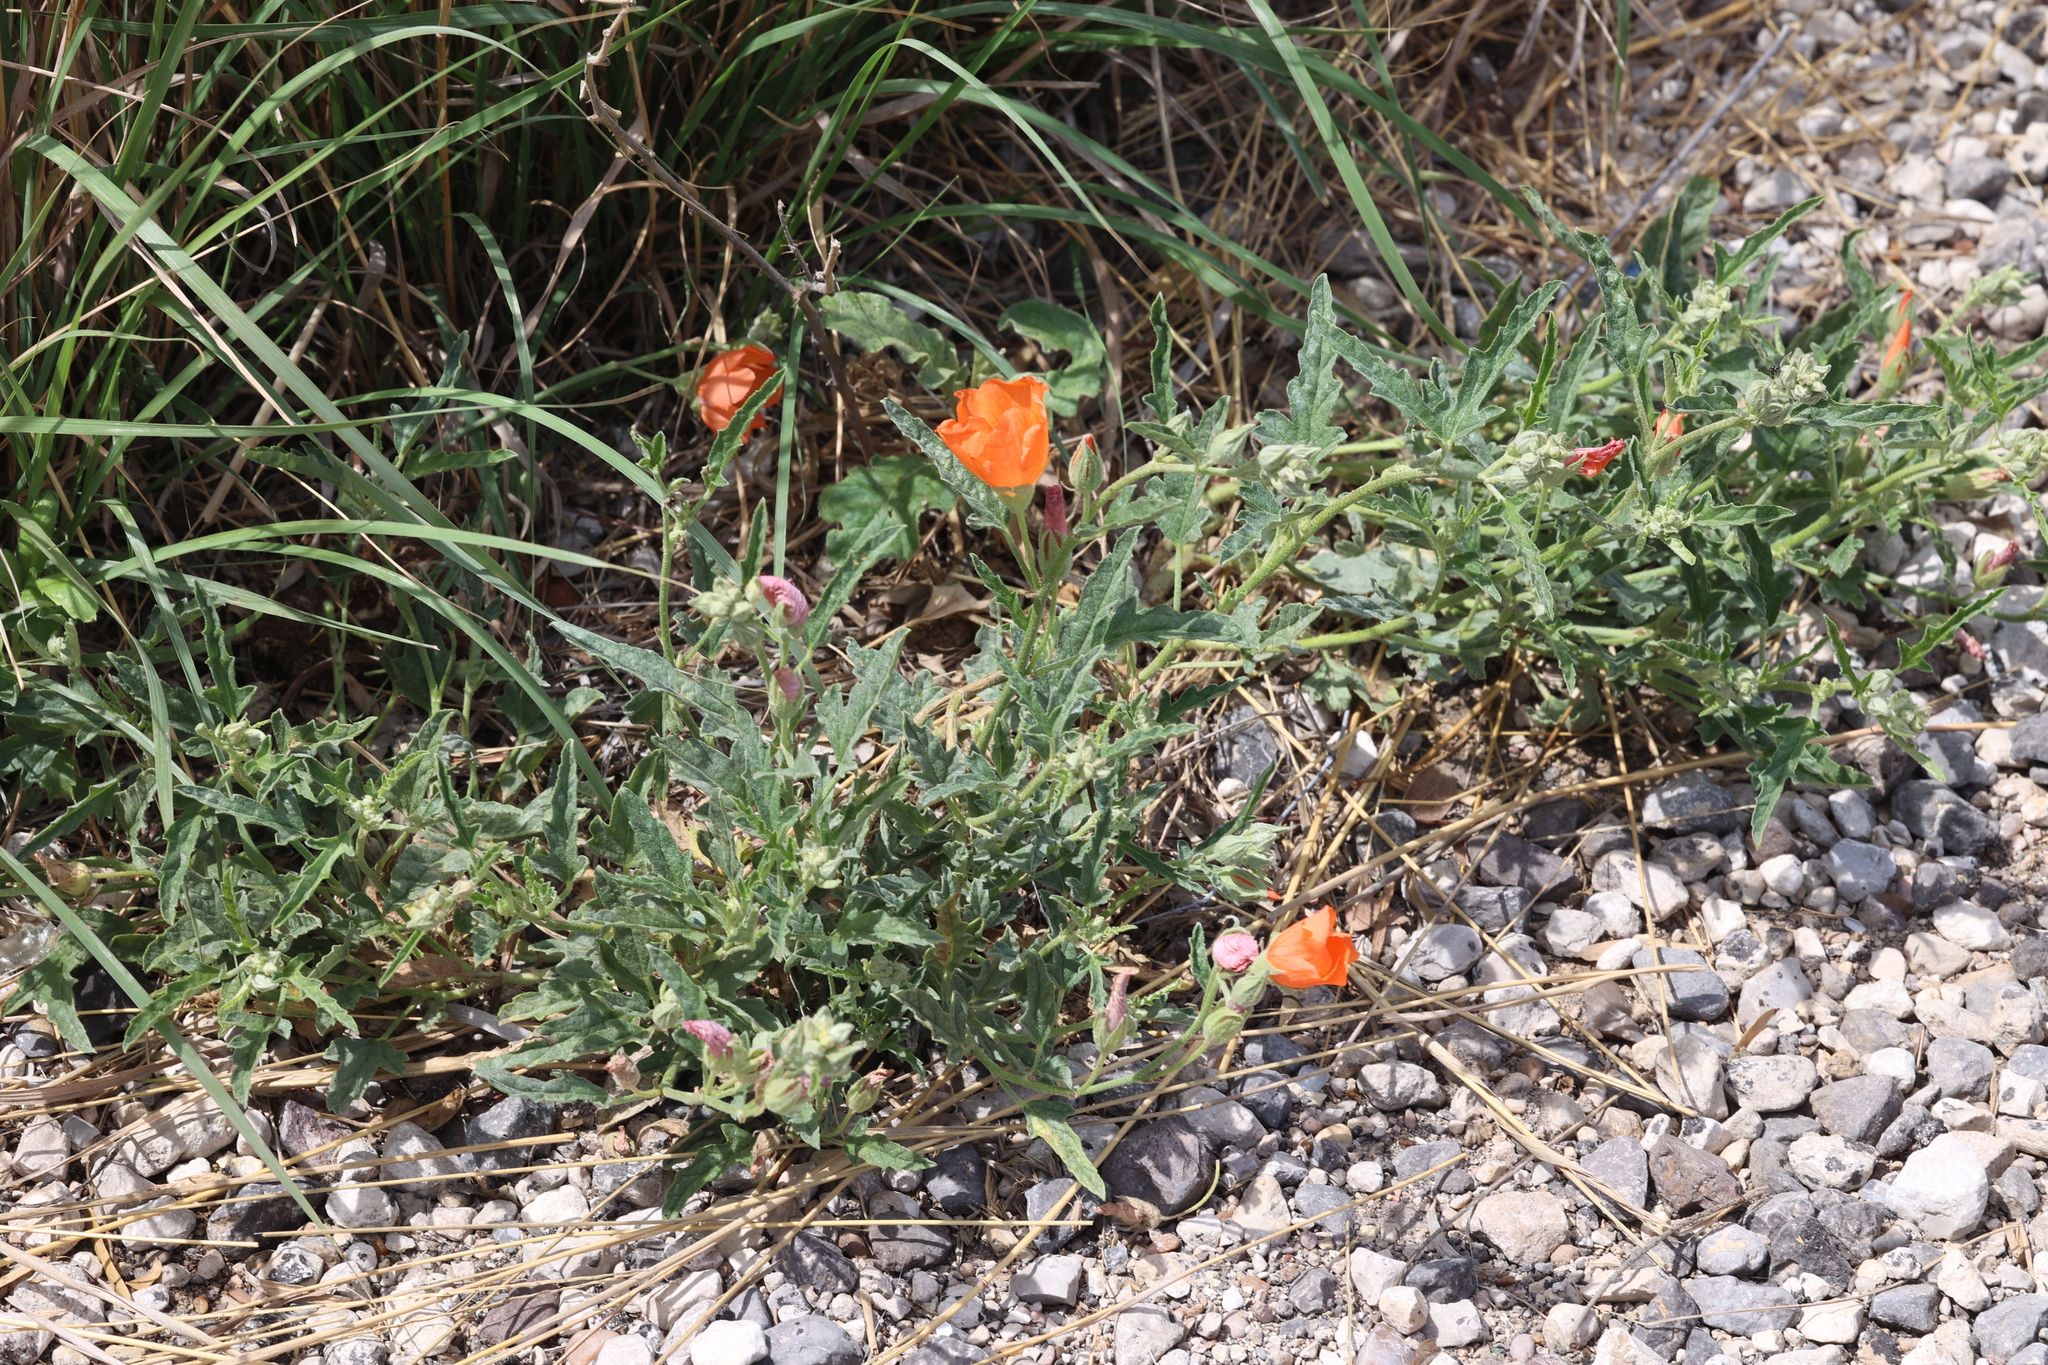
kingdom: Plantae
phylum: Tracheophyta
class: Magnoliopsida
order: Malvales
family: Malvaceae
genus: Sphaeralcea
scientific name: Sphaeralcea hastulata
